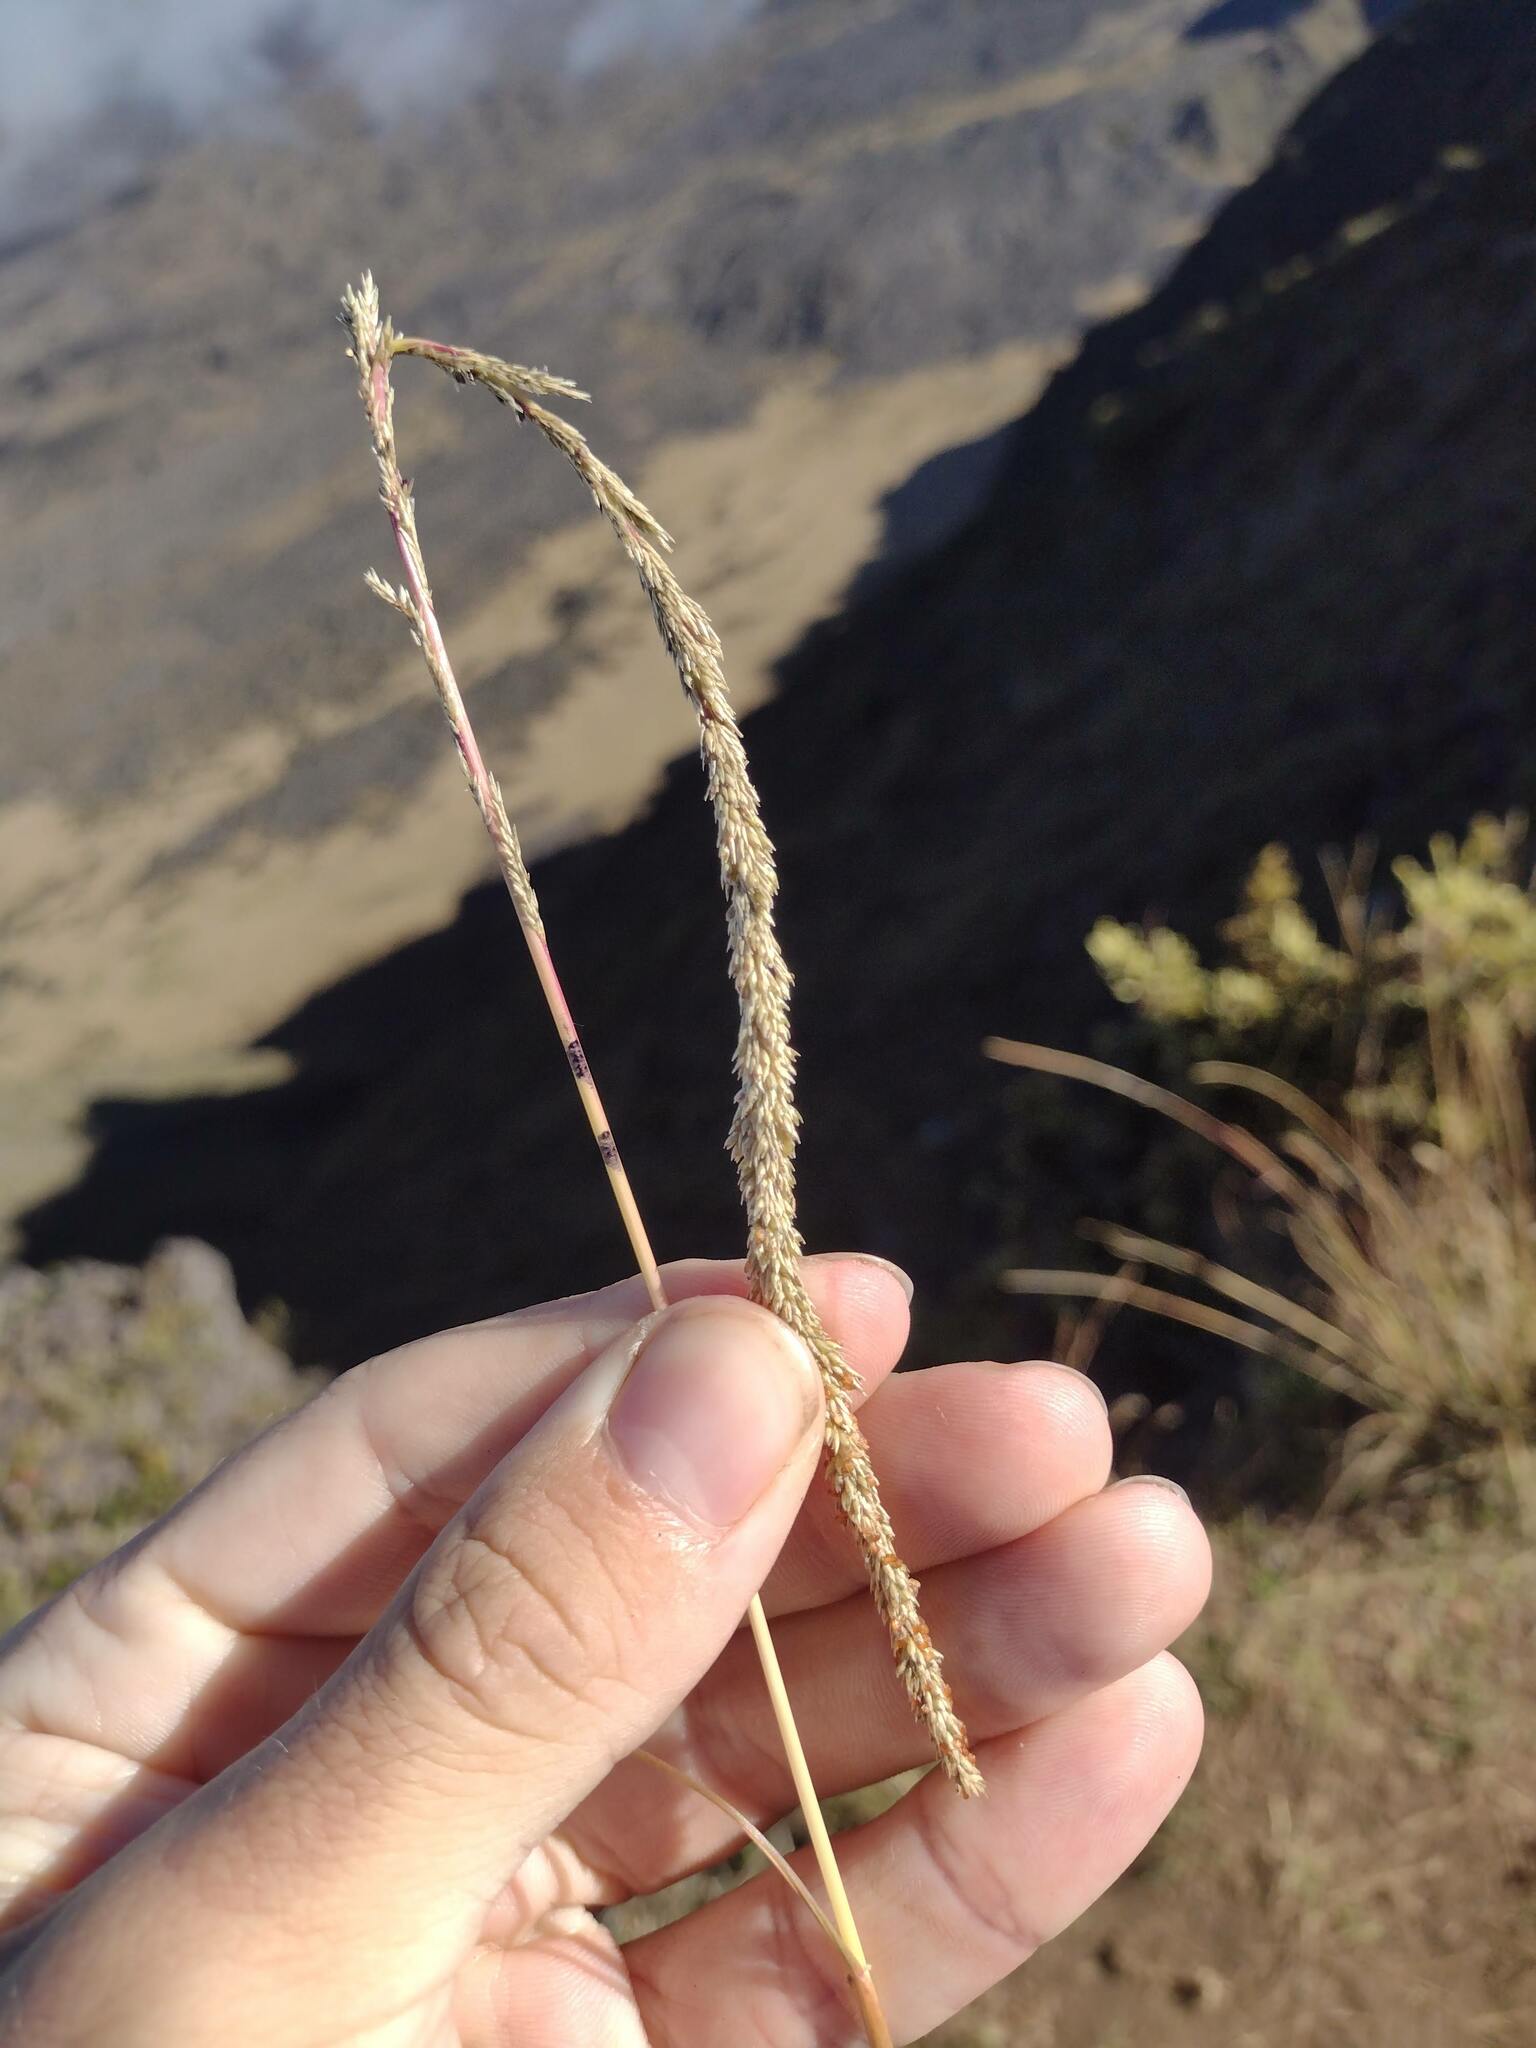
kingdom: Plantae
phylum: Tracheophyta
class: Liliopsida
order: Poales
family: Poaceae
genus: Sporobolus
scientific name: Sporobolus africanus
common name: African dropseed
